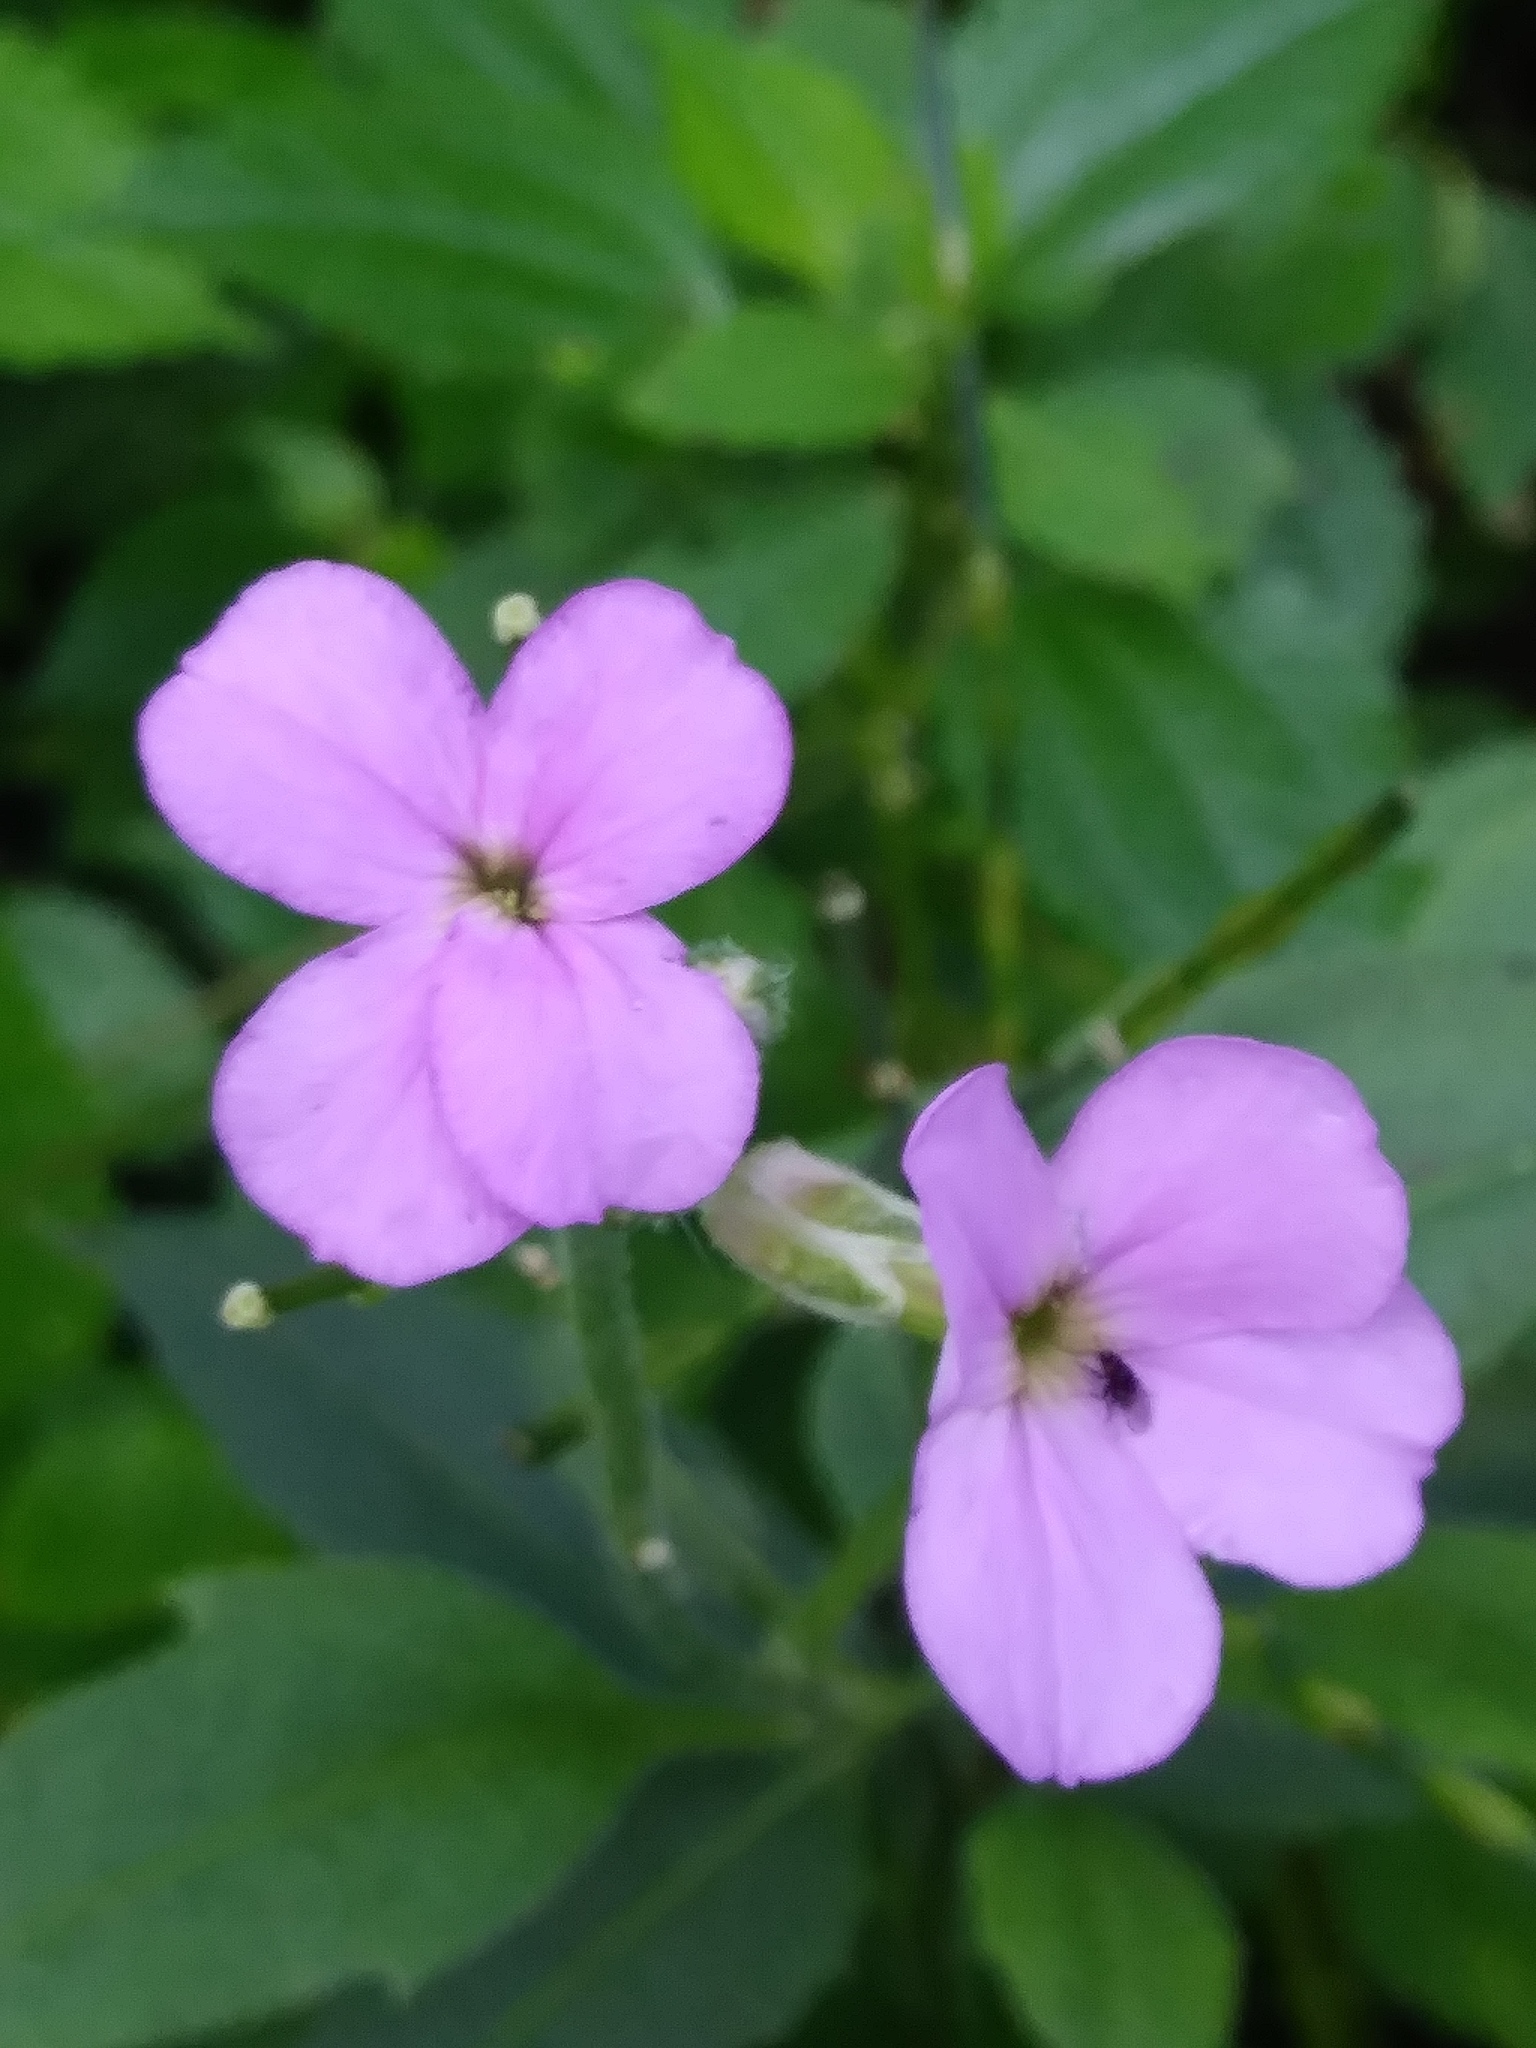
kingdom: Plantae
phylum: Tracheophyta
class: Magnoliopsida
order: Brassicales
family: Brassicaceae
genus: Hesperis
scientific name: Hesperis matronalis
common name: Dame's-violet
